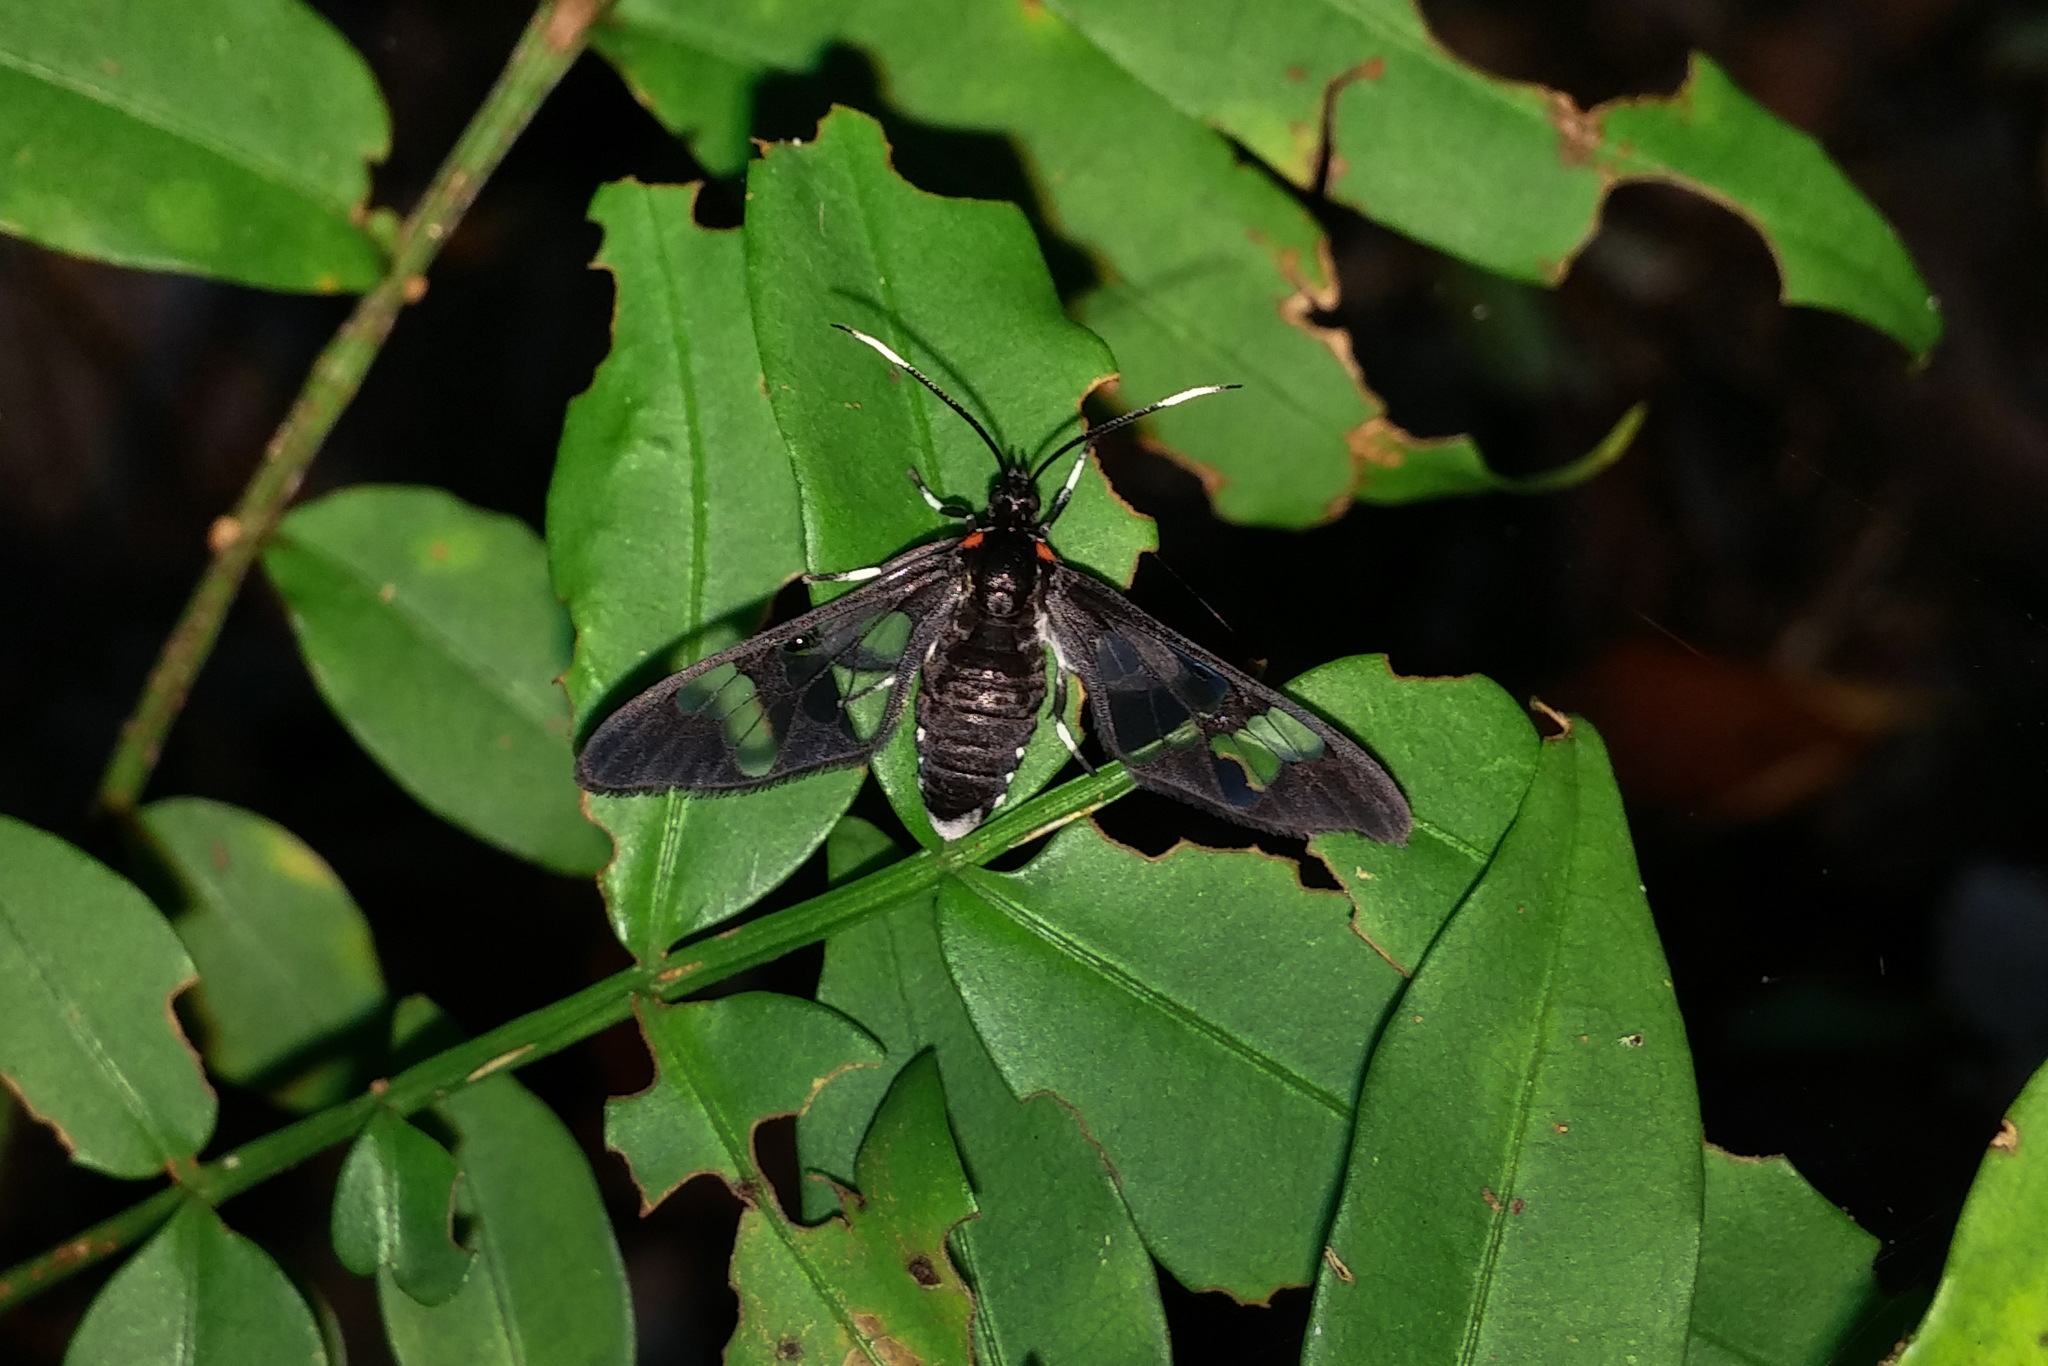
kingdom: Animalia
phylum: Arthropoda
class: Insecta
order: Lepidoptera
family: Erebidae
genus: Vitronaclia
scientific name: Vitronaclia veronica
